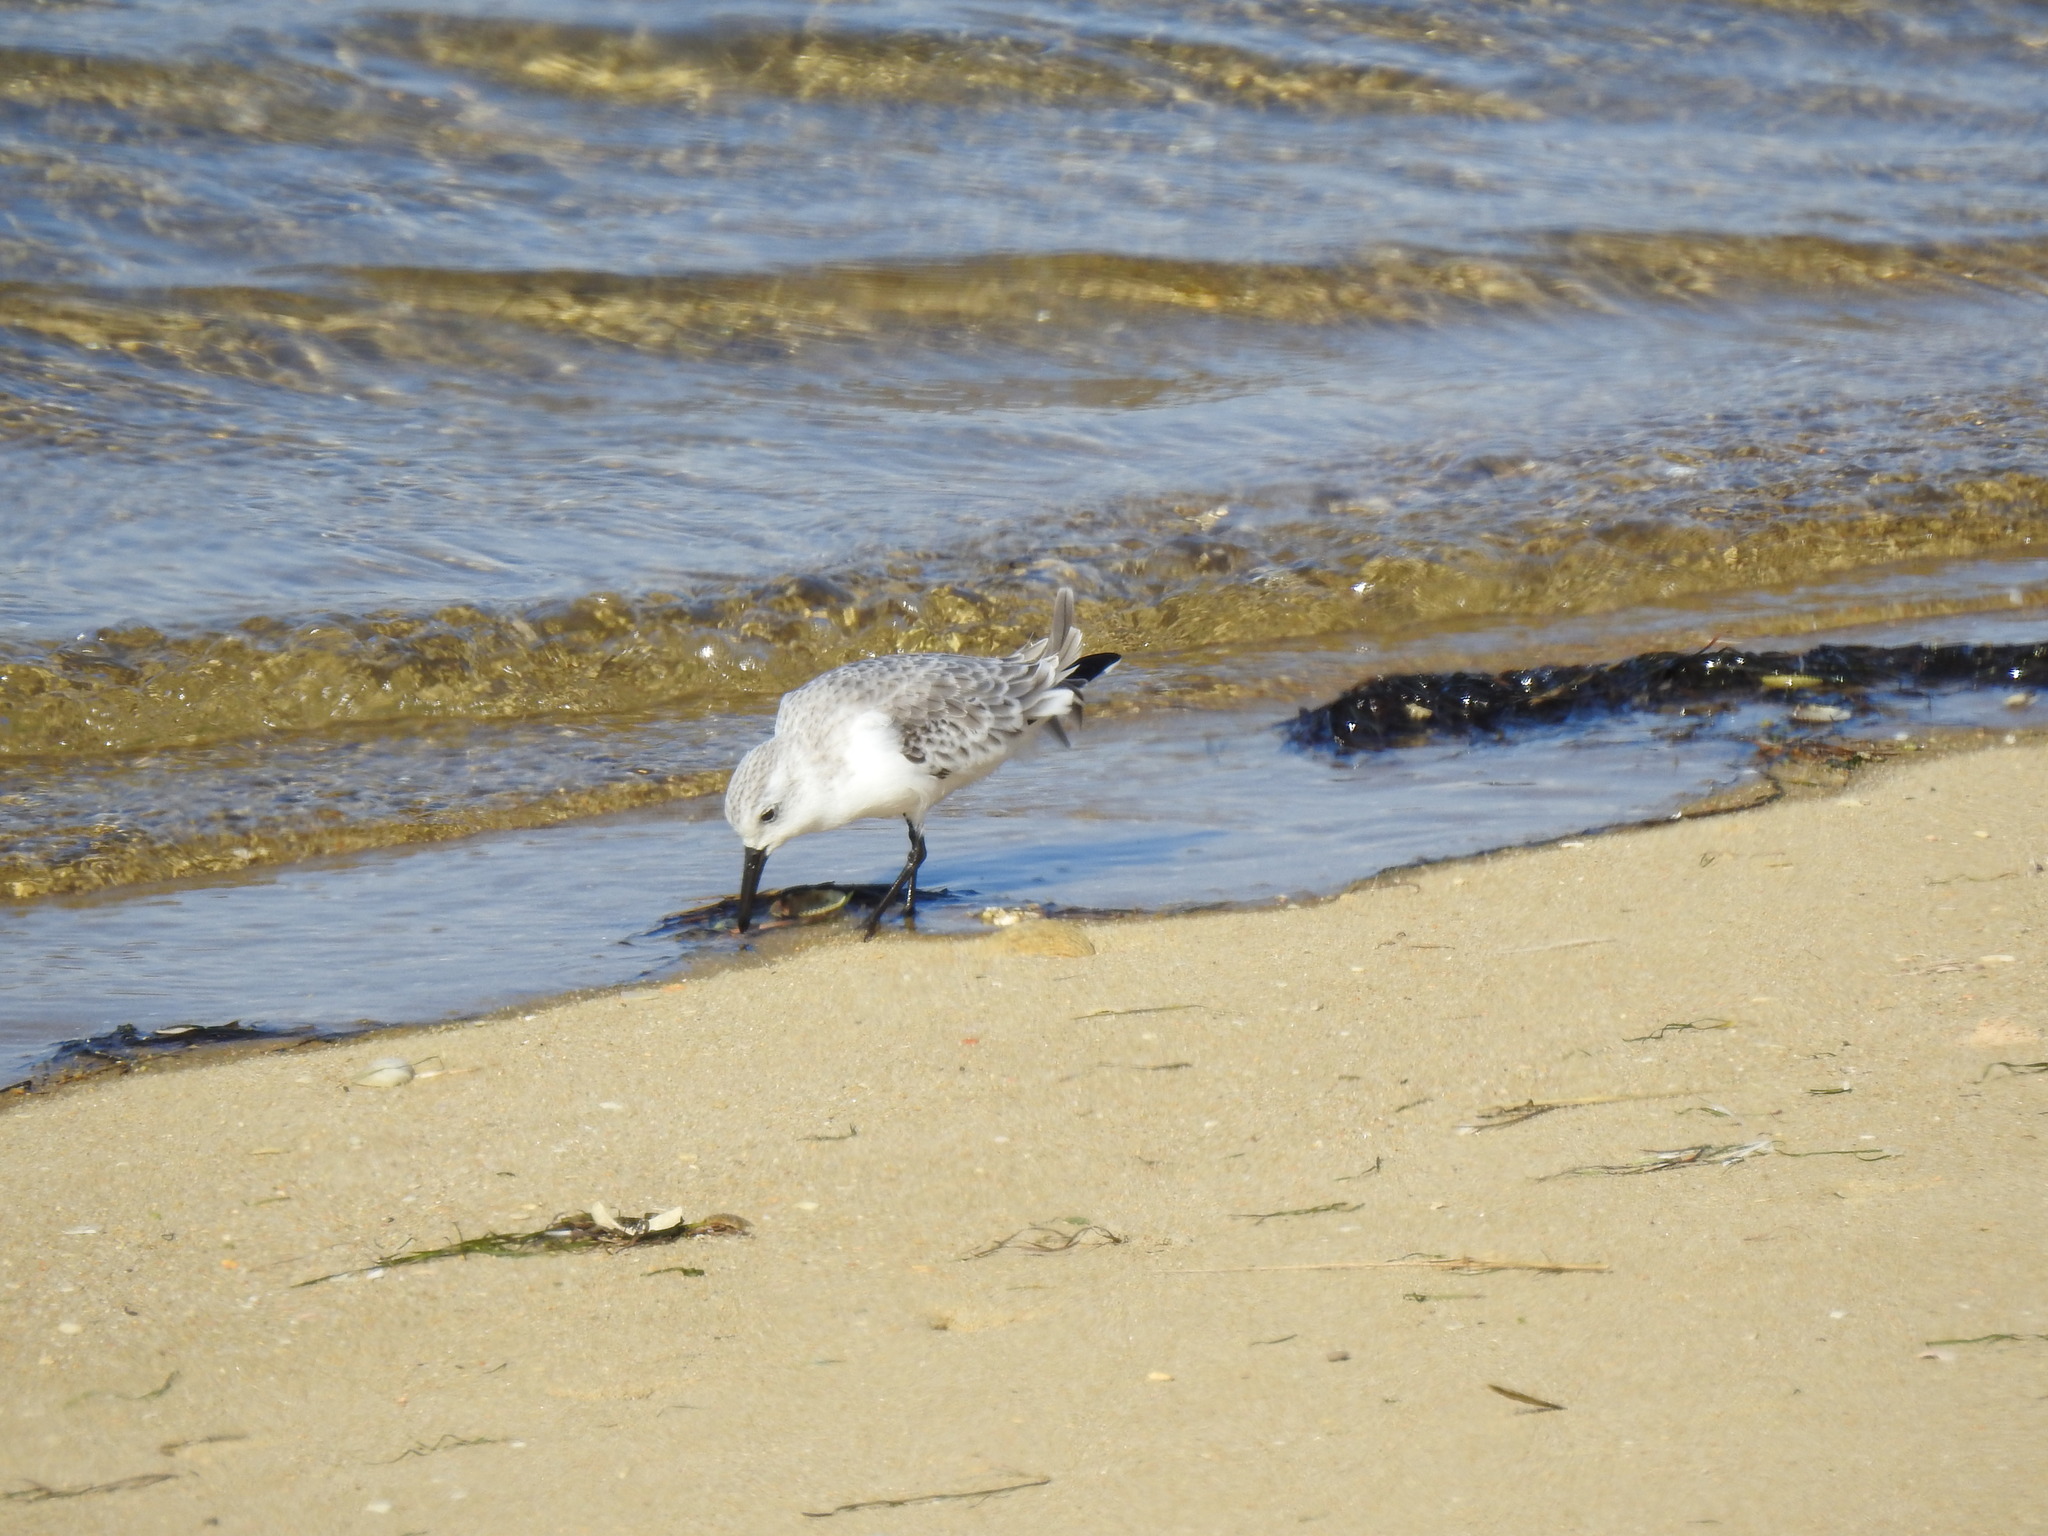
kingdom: Animalia
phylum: Chordata
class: Aves
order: Charadriiformes
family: Scolopacidae
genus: Calidris
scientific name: Calidris alba
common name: Sanderling
